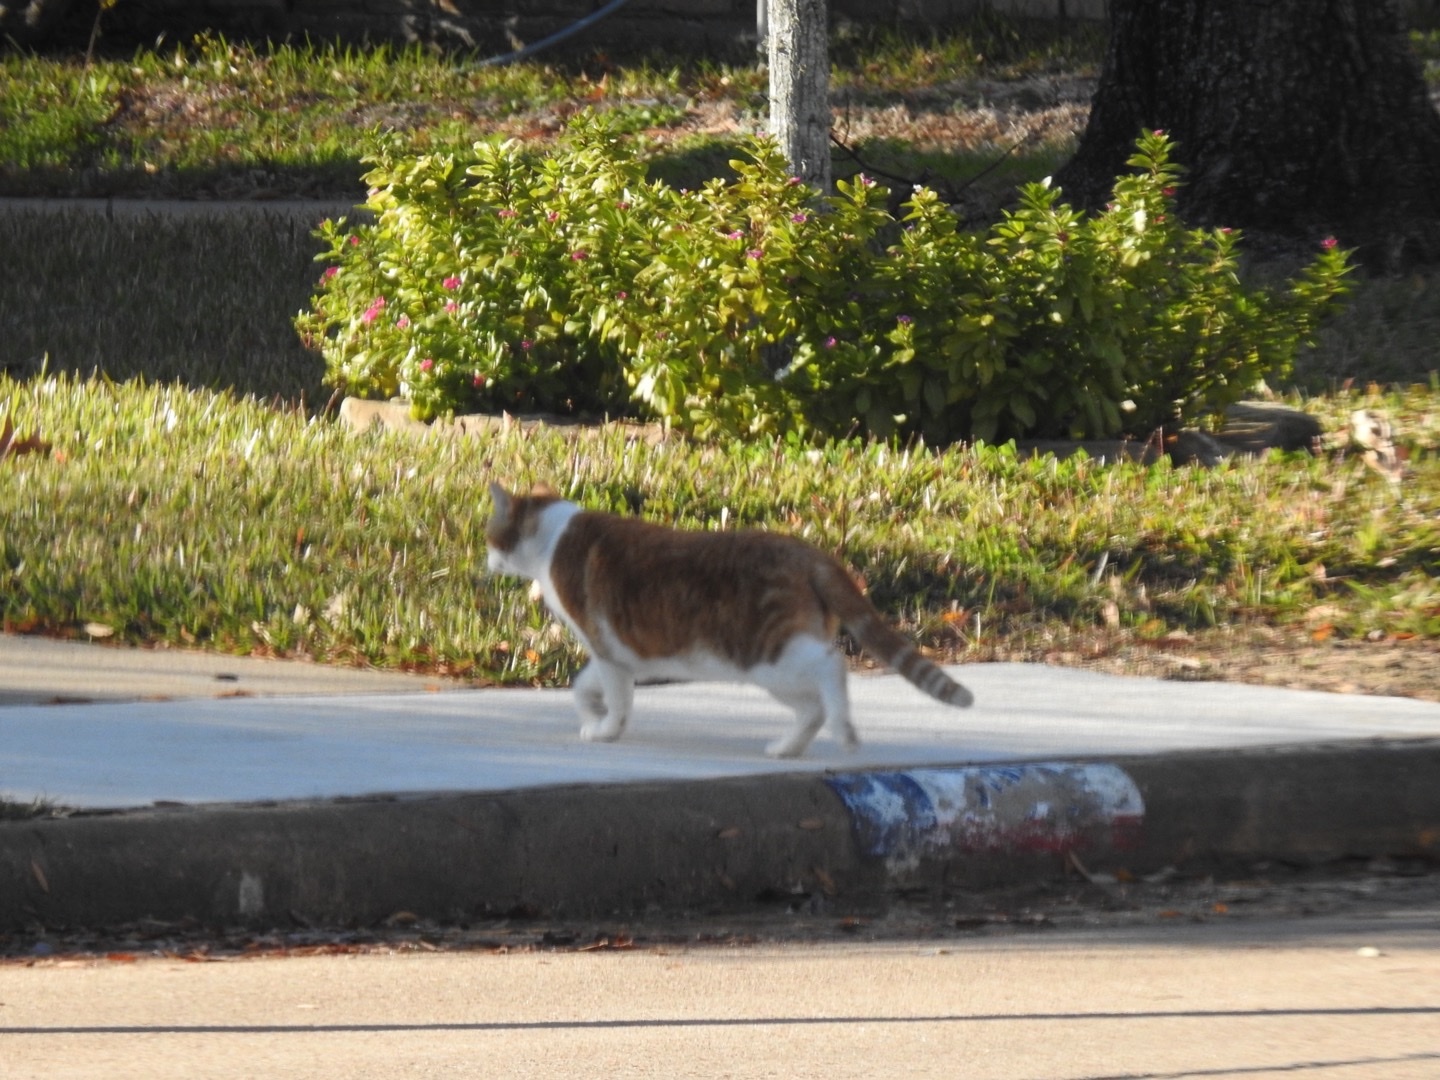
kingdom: Animalia
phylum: Chordata
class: Mammalia
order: Carnivora
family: Felidae
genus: Felis
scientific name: Felis catus
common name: Domestic cat
